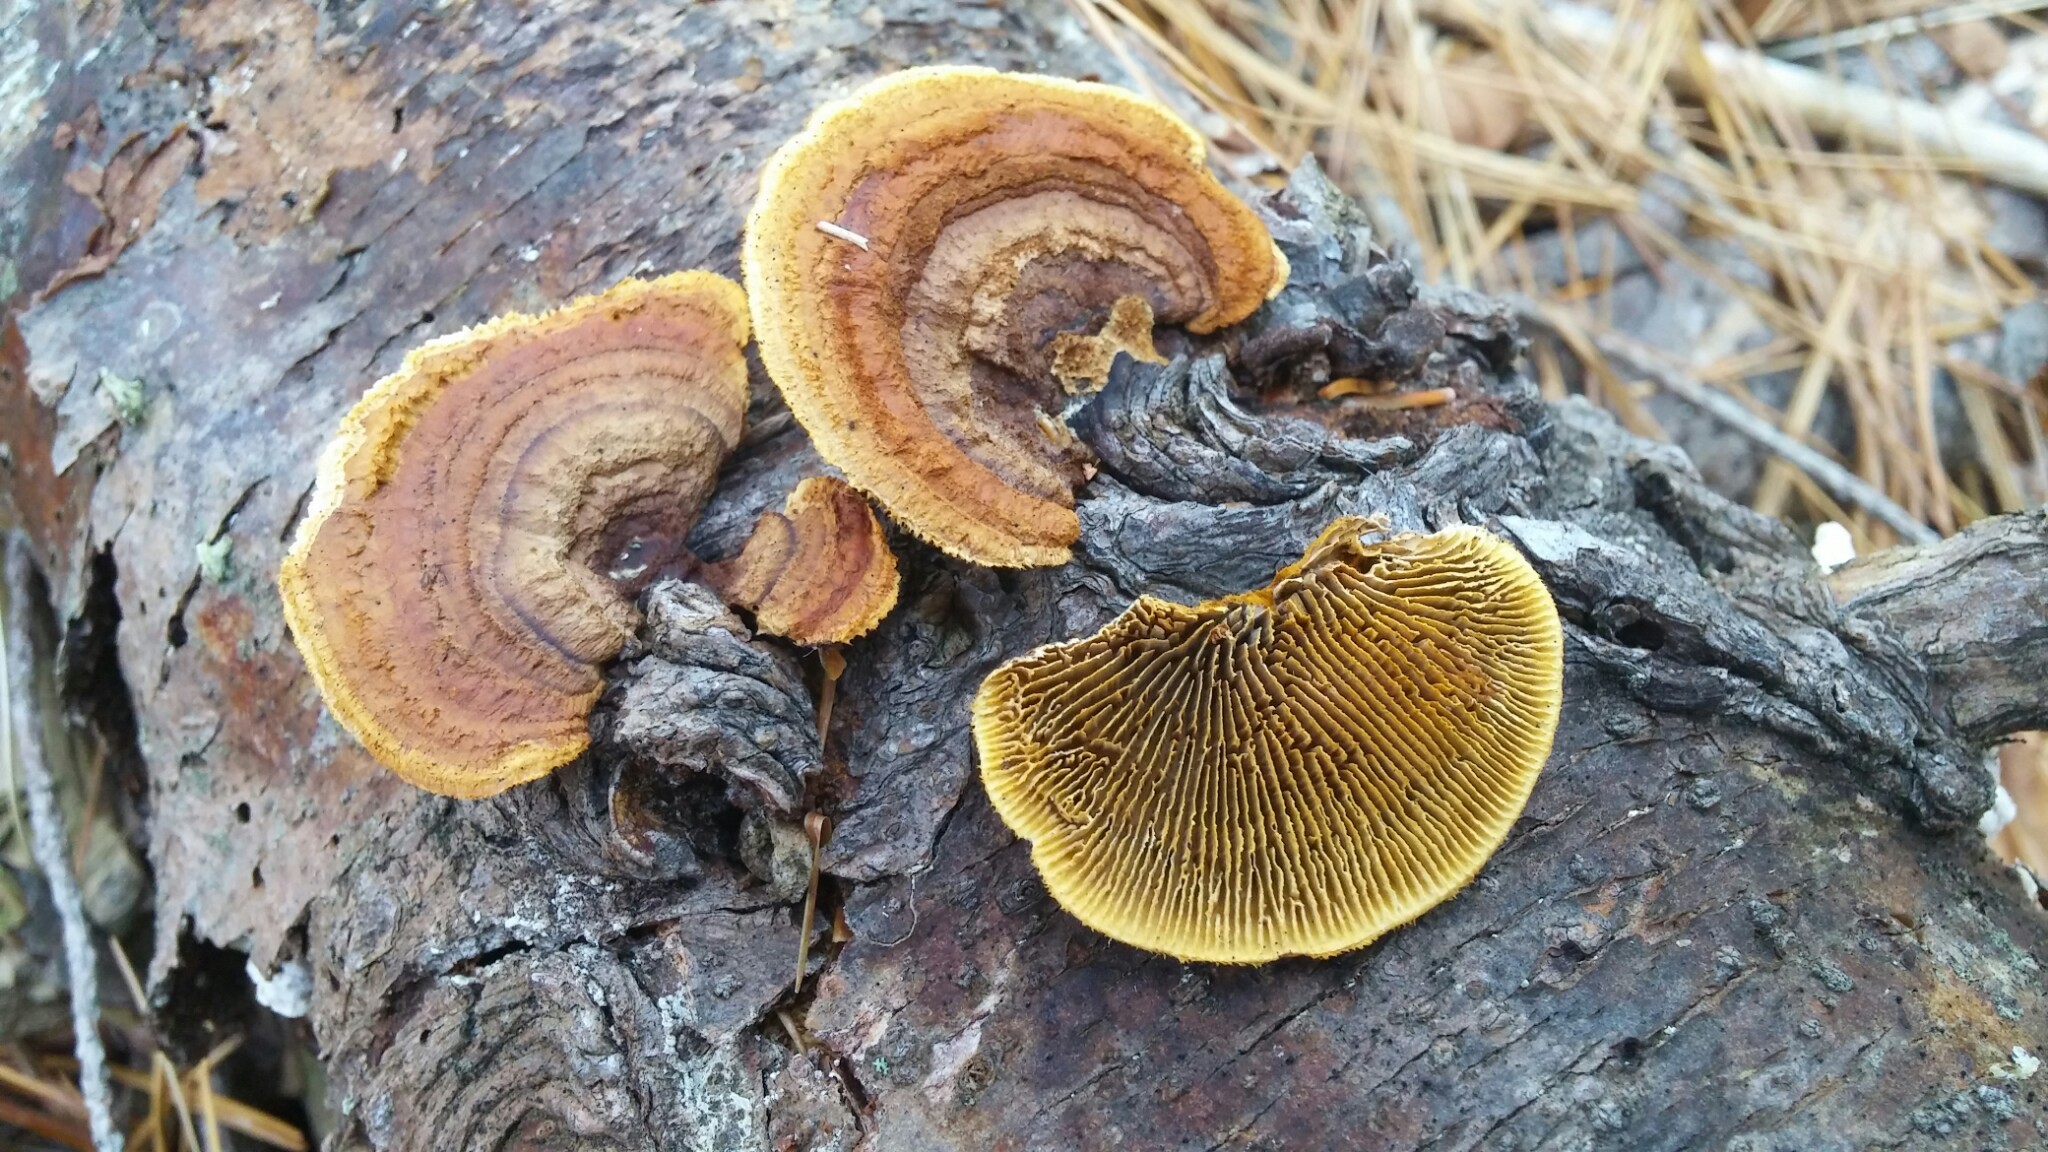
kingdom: Fungi
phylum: Basidiomycota
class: Agaricomycetes
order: Gloeophyllales
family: Gloeophyllaceae
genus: Gloeophyllum
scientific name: Gloeophyllum sepiarium
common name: Conifer mazegill
